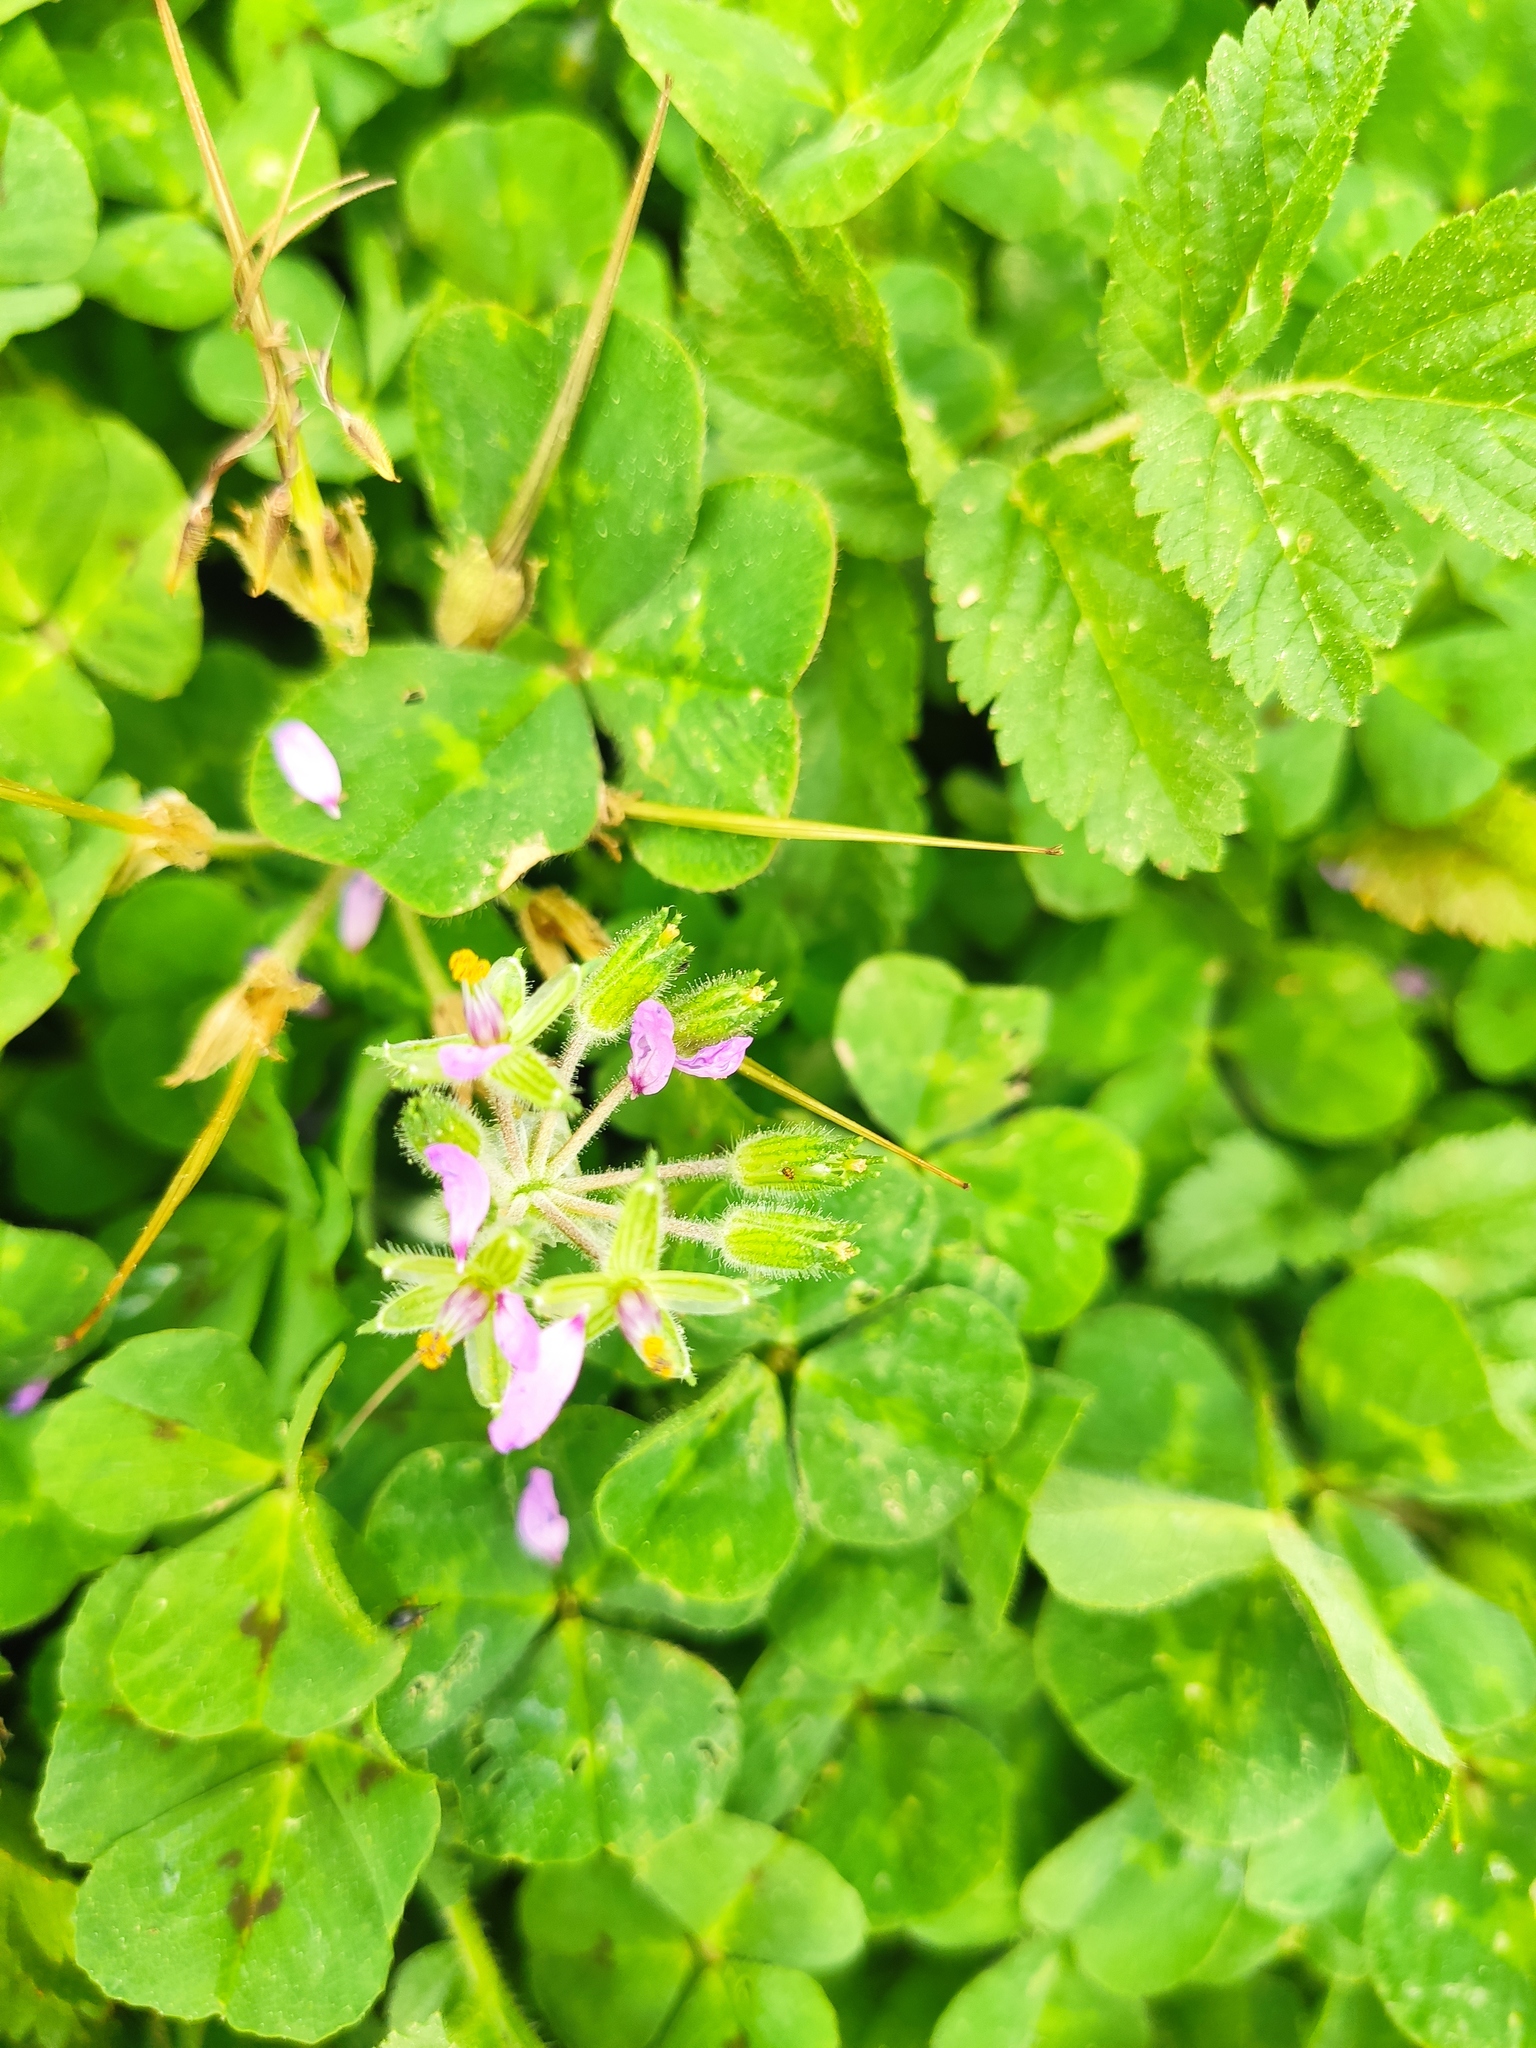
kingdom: Plantae
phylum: Tracheophyta
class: Magnoliopsida
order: Geraniales
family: Geraniaceae
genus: Erodium
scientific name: Erodium moschatum
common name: Musk stork's-bill
